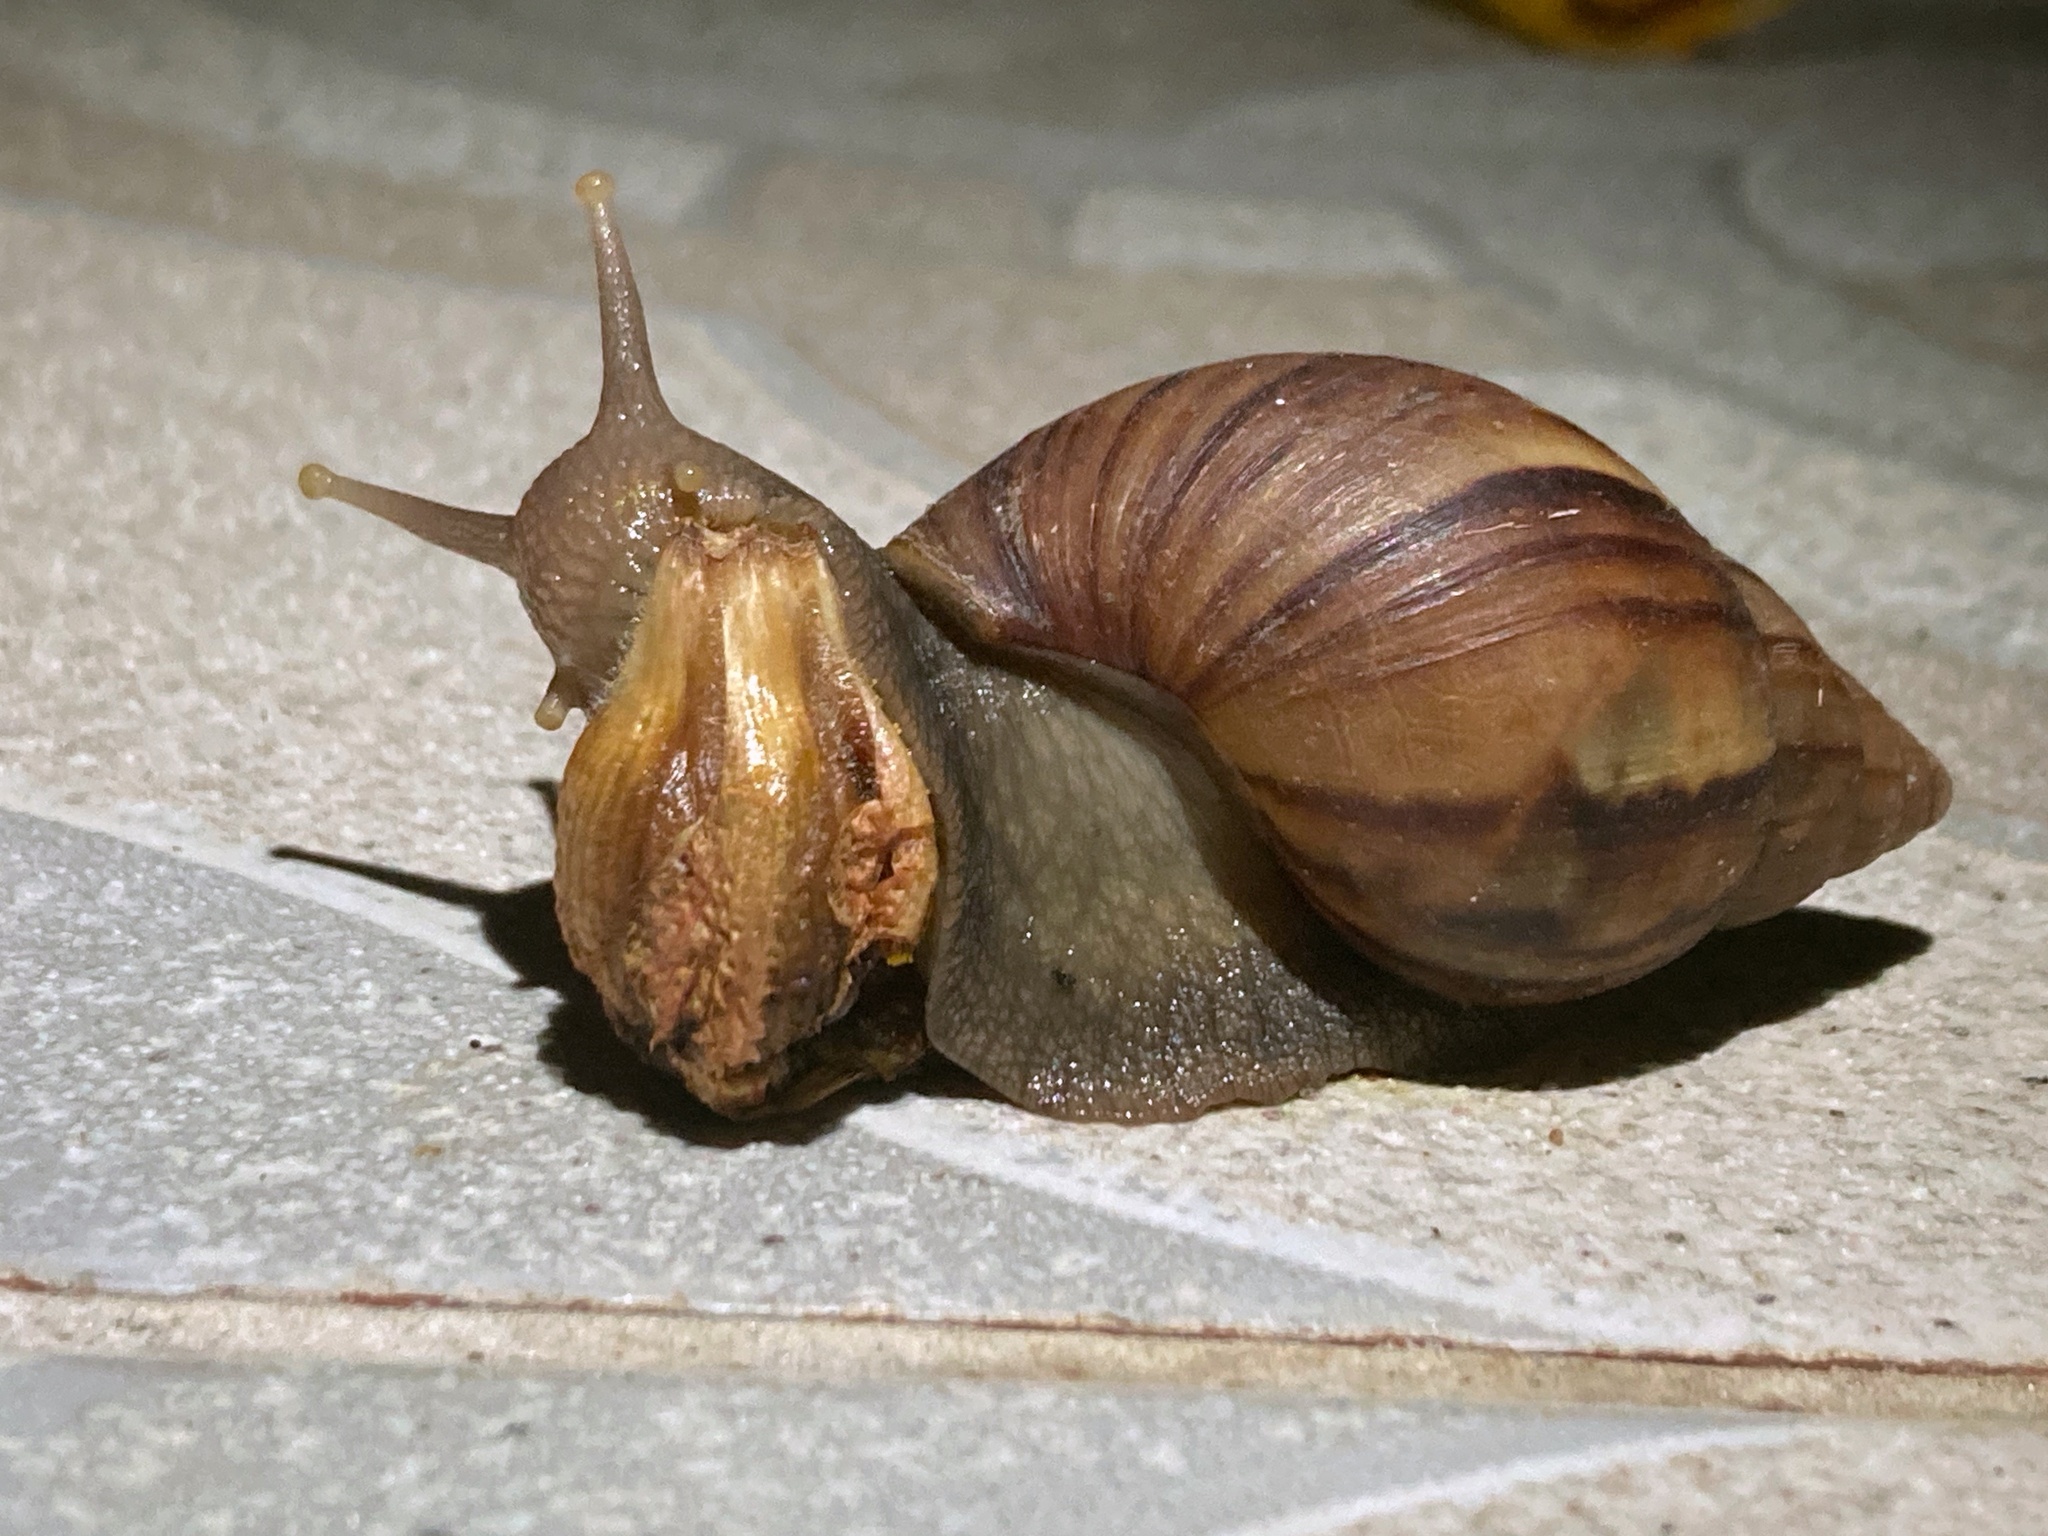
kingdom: Animalia
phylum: Mollusca
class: Gastropoda
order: Stylommatophora
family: Achatinidae
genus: Lissachatina
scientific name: Lissachatina fulica
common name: Giant african snail
